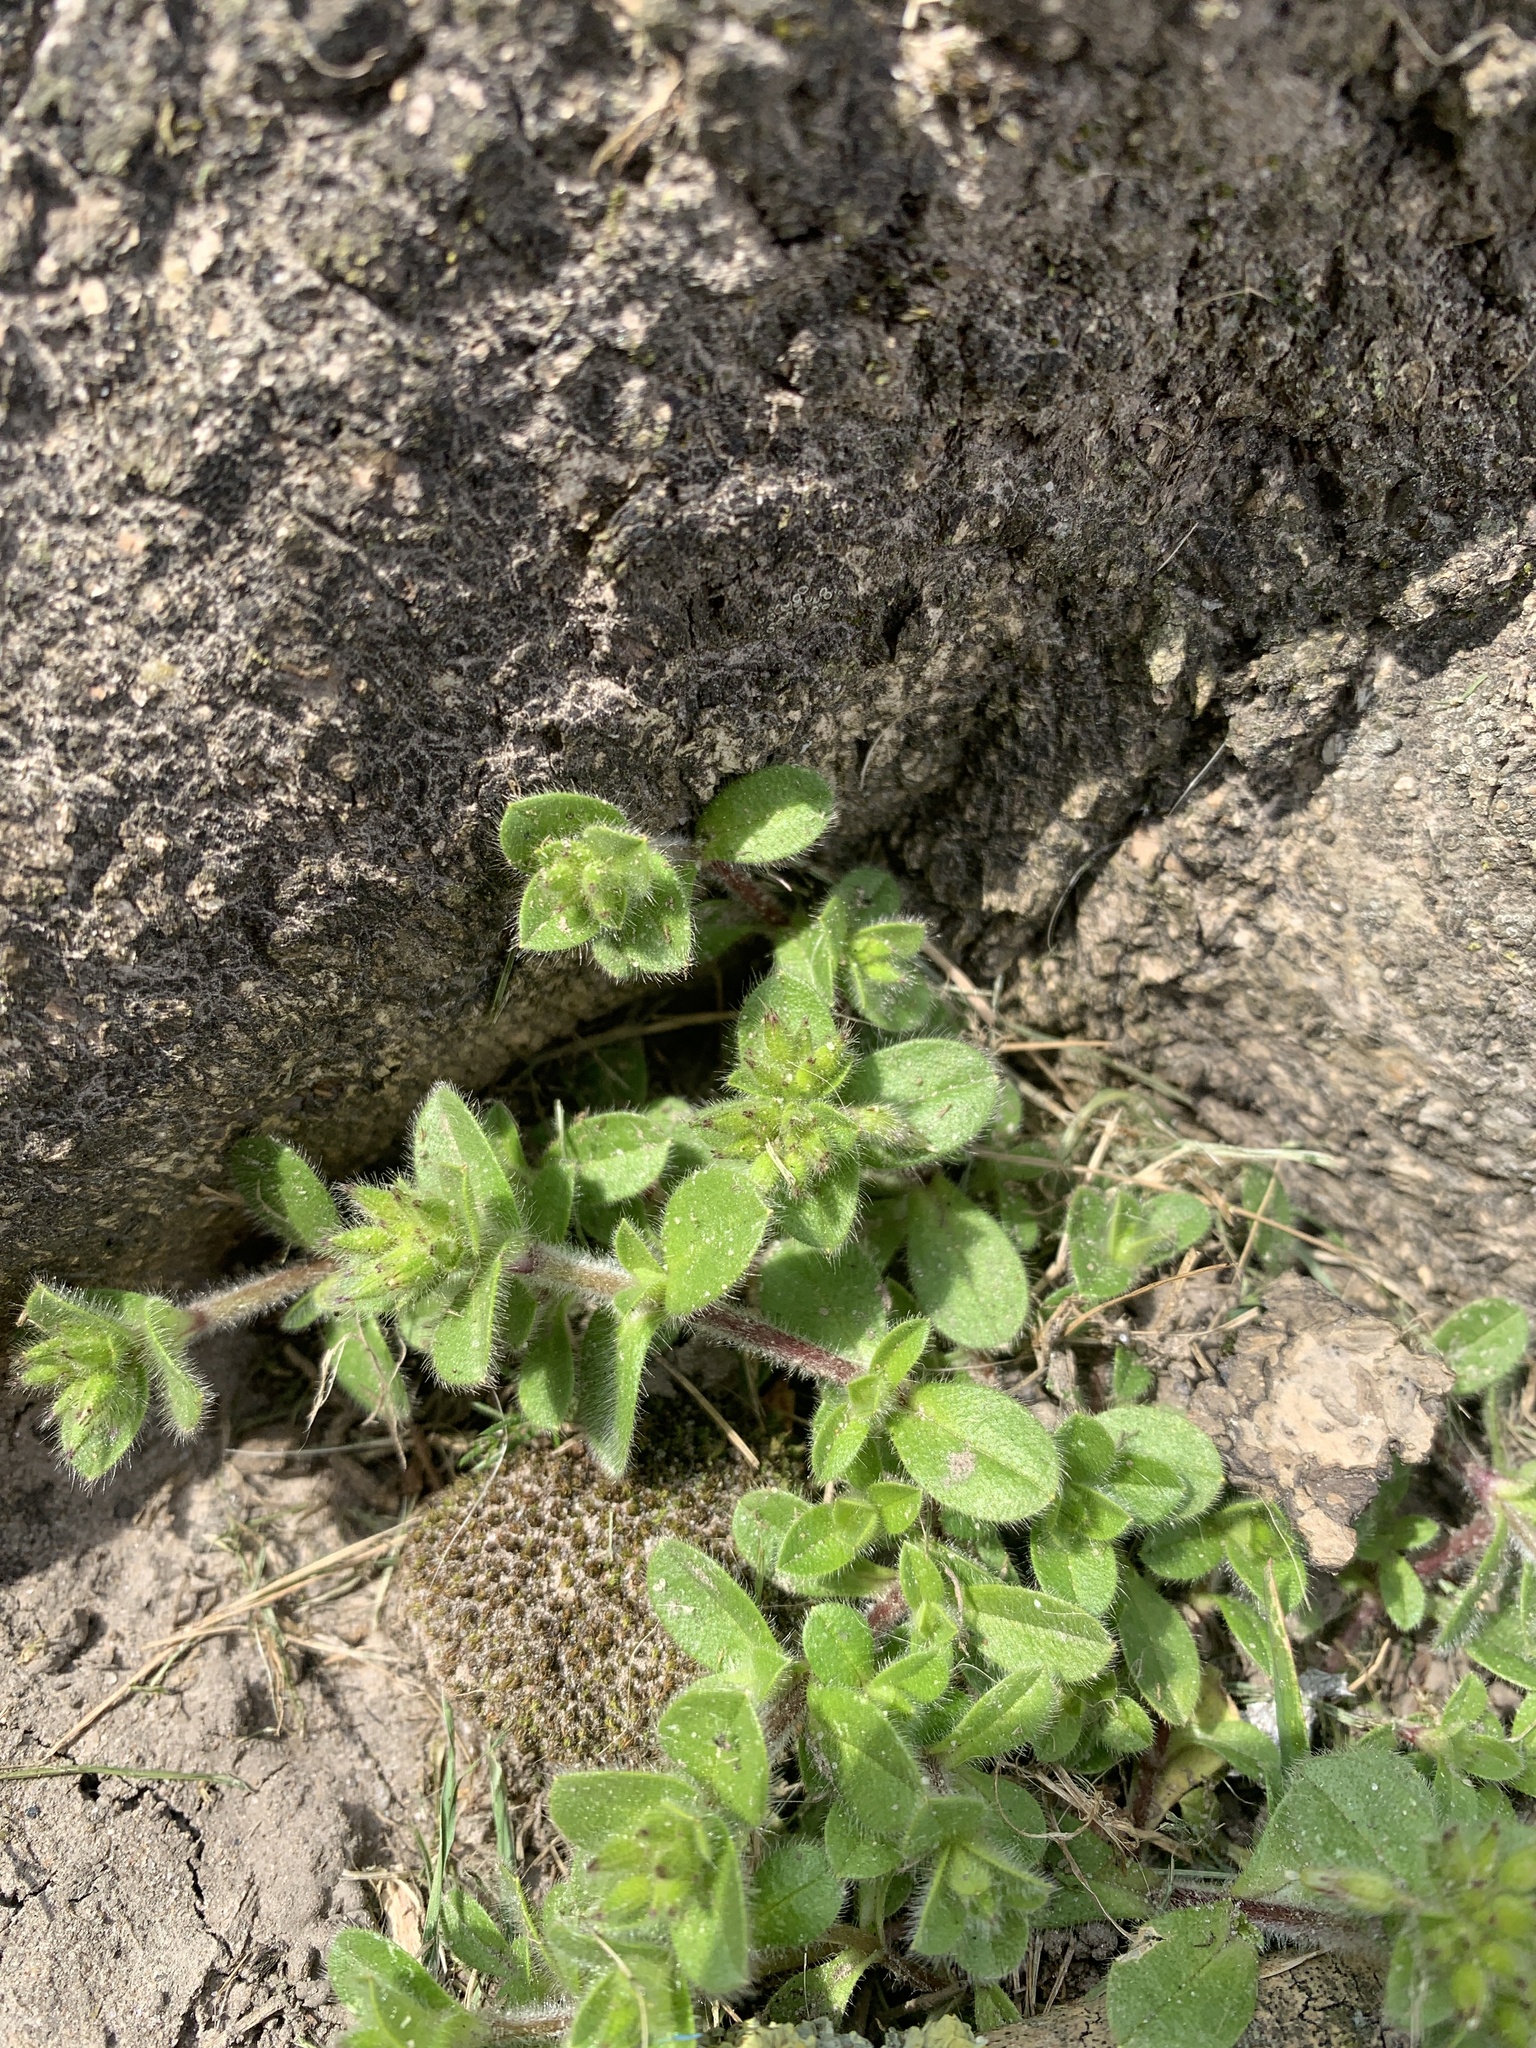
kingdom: Plantae
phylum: Tracheophyta
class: Magnoliopsida
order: Caryophyllales
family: Caryophyllaceae
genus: Cerastium
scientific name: Cerastium glomeratum
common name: Sticky chickweed
